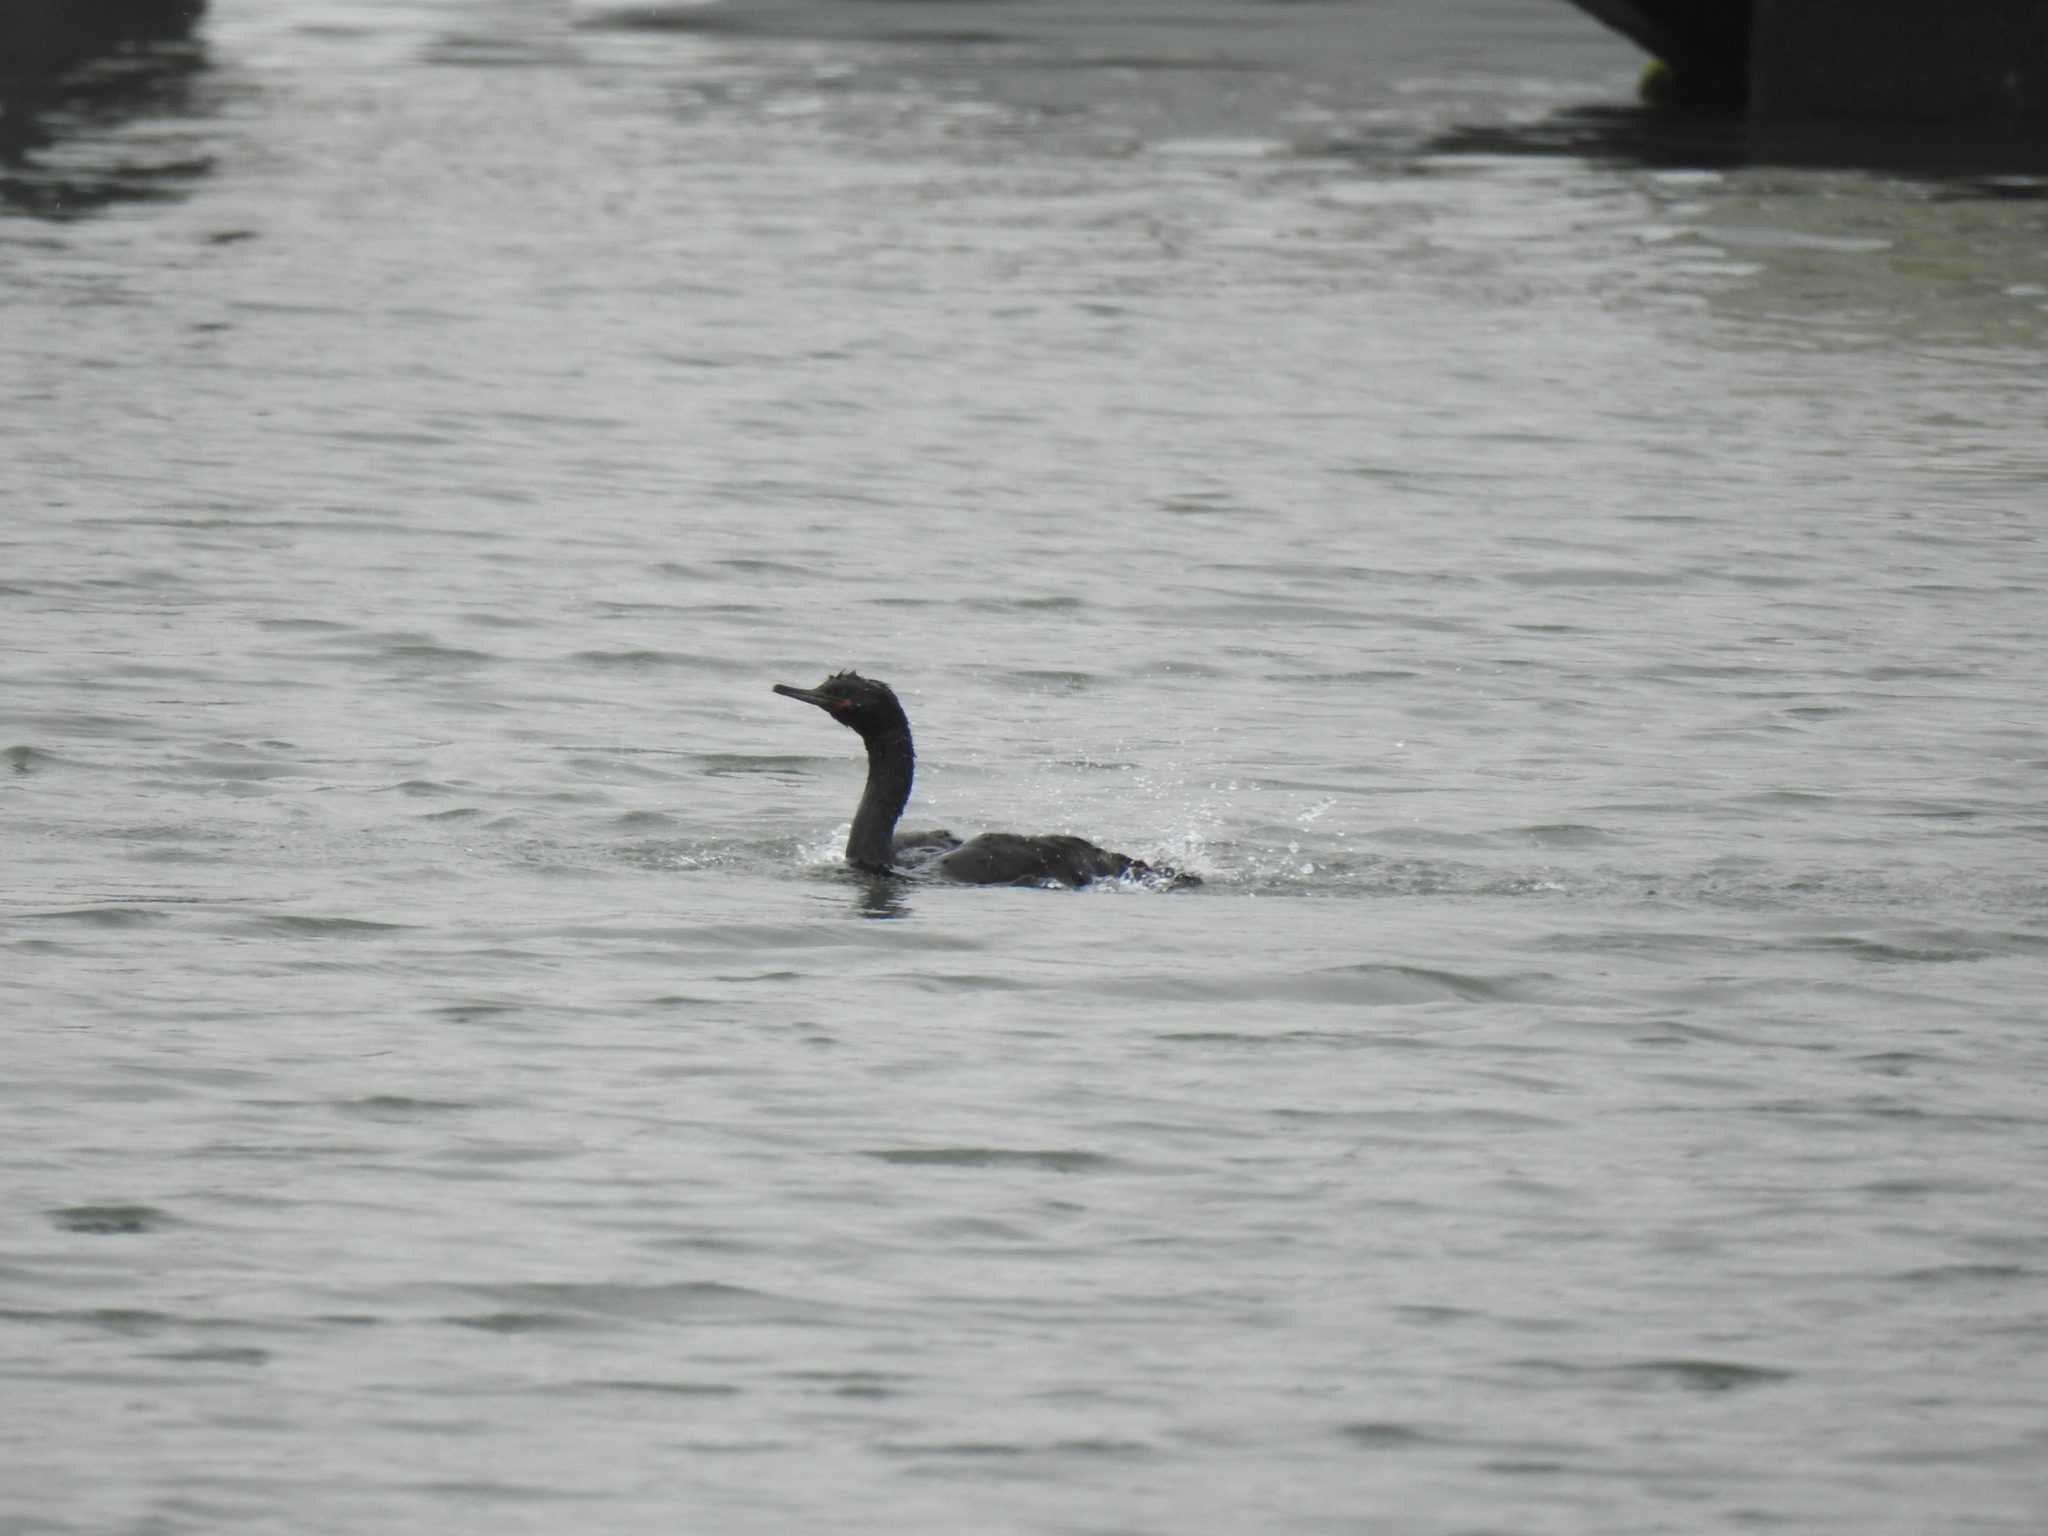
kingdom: Animalia
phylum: Chordata
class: Aves
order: Suliformes
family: Phalacrocoracidae
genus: Phalacrocorax
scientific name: Phalacrocorax pelagicus
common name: Pelagic cormorant
